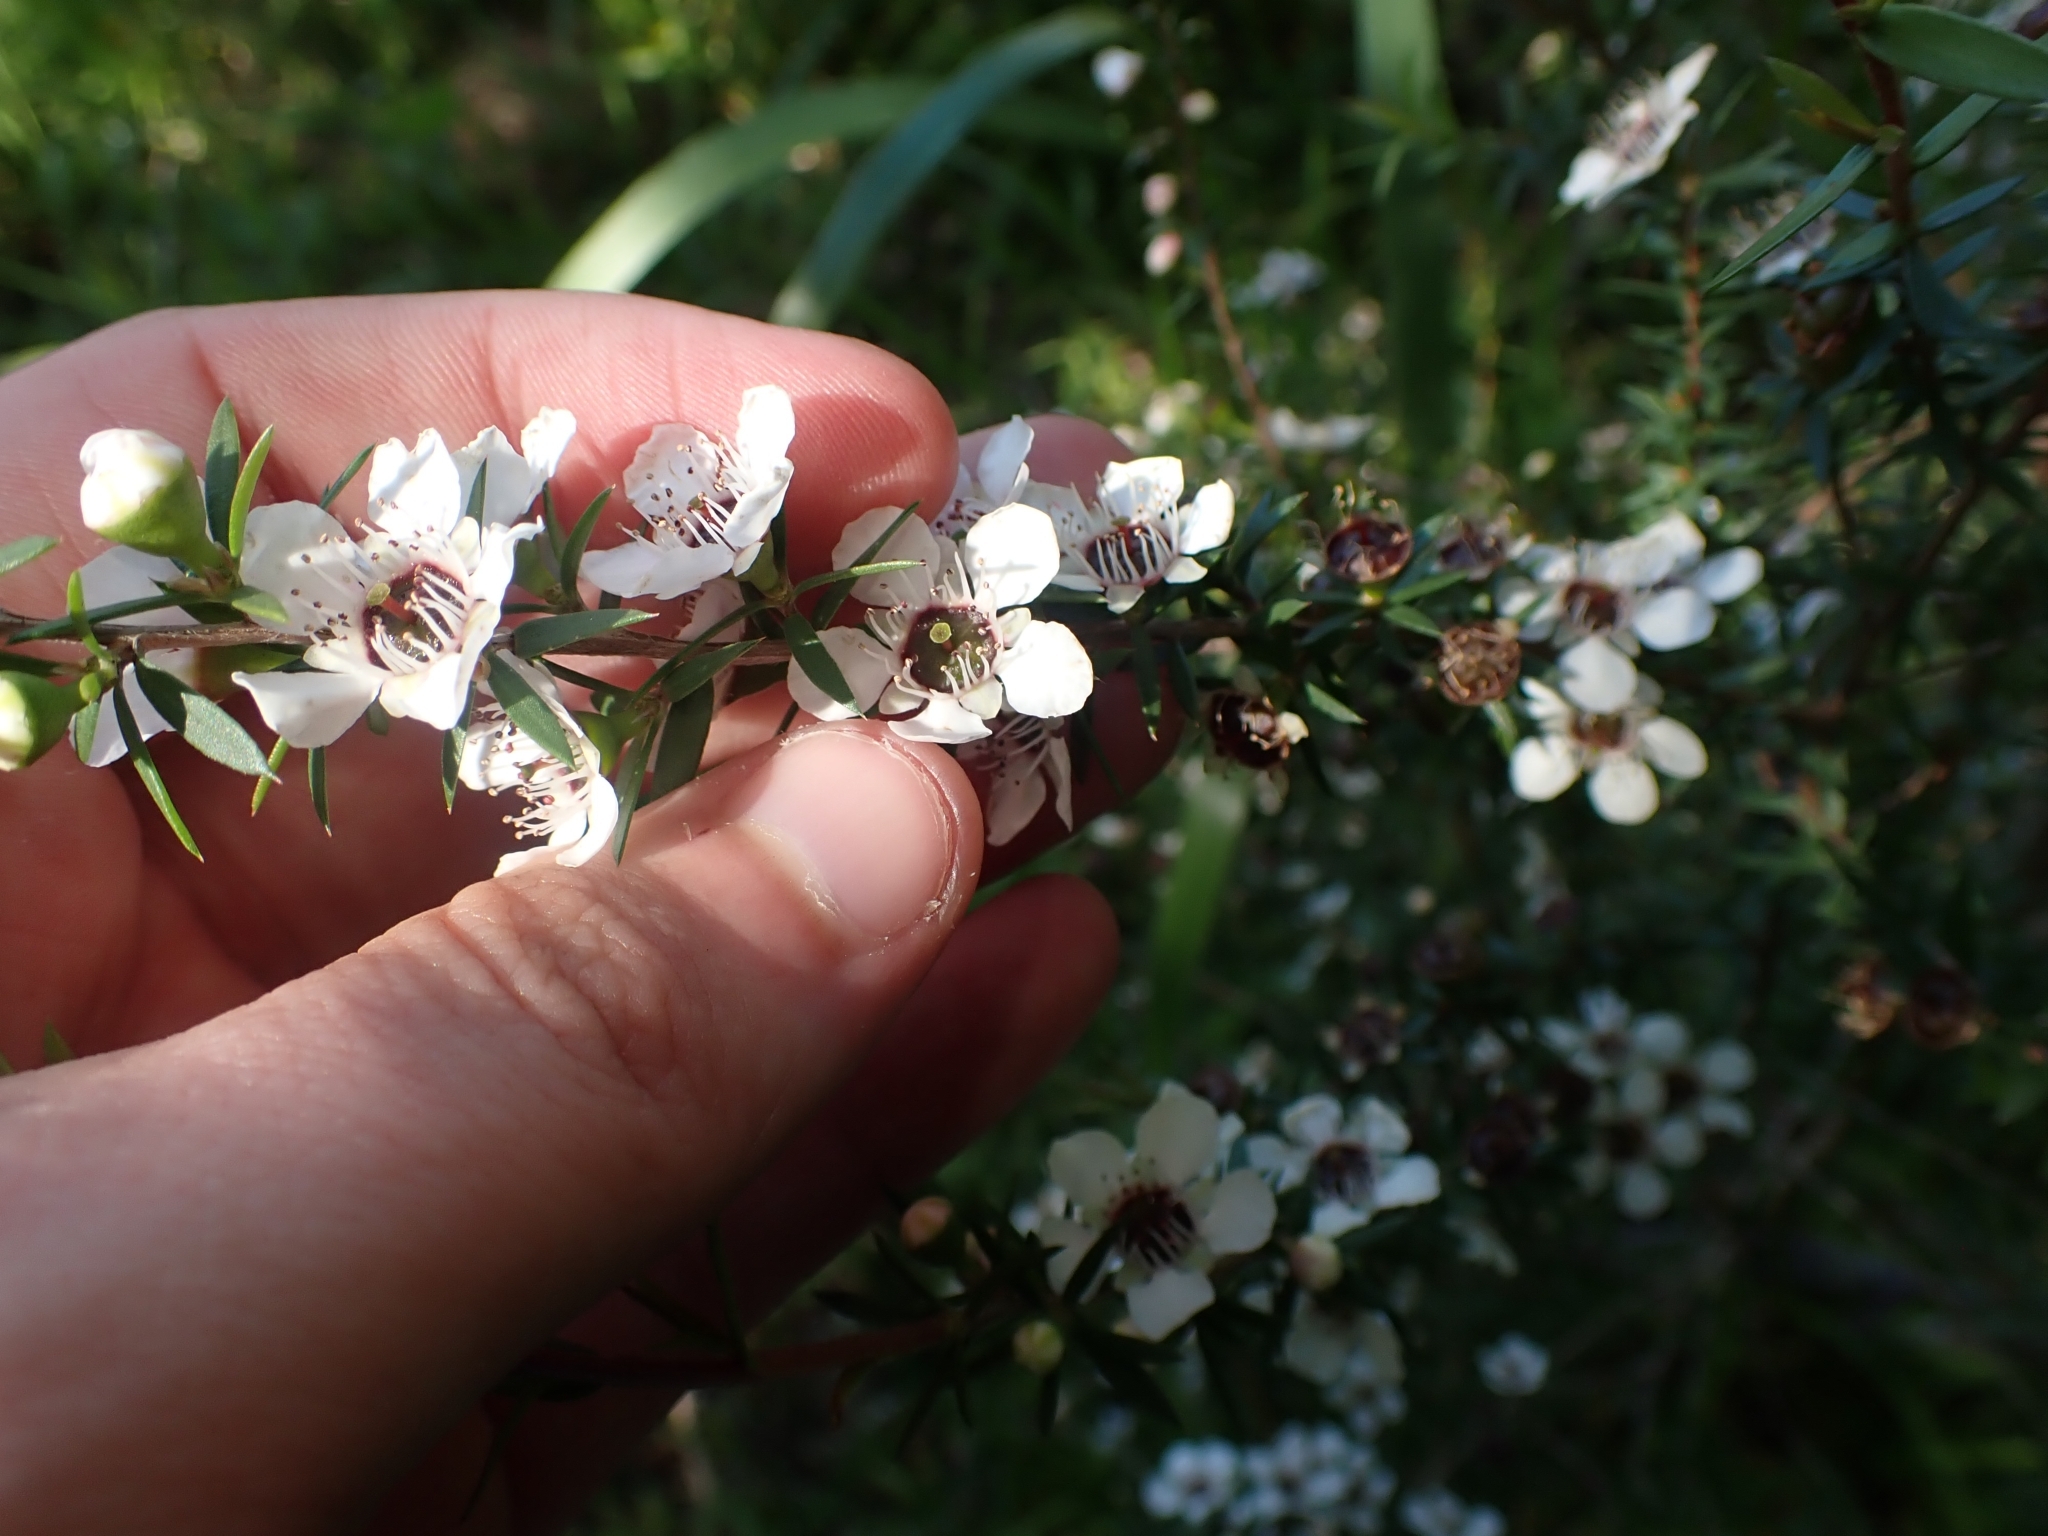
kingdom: Plantae
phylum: Tracheophyta
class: Magnoliopsida
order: Myrtales
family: Myrtaceae
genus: Leptospermum
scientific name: Leptospermum scoparium
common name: Broom tea-tree
